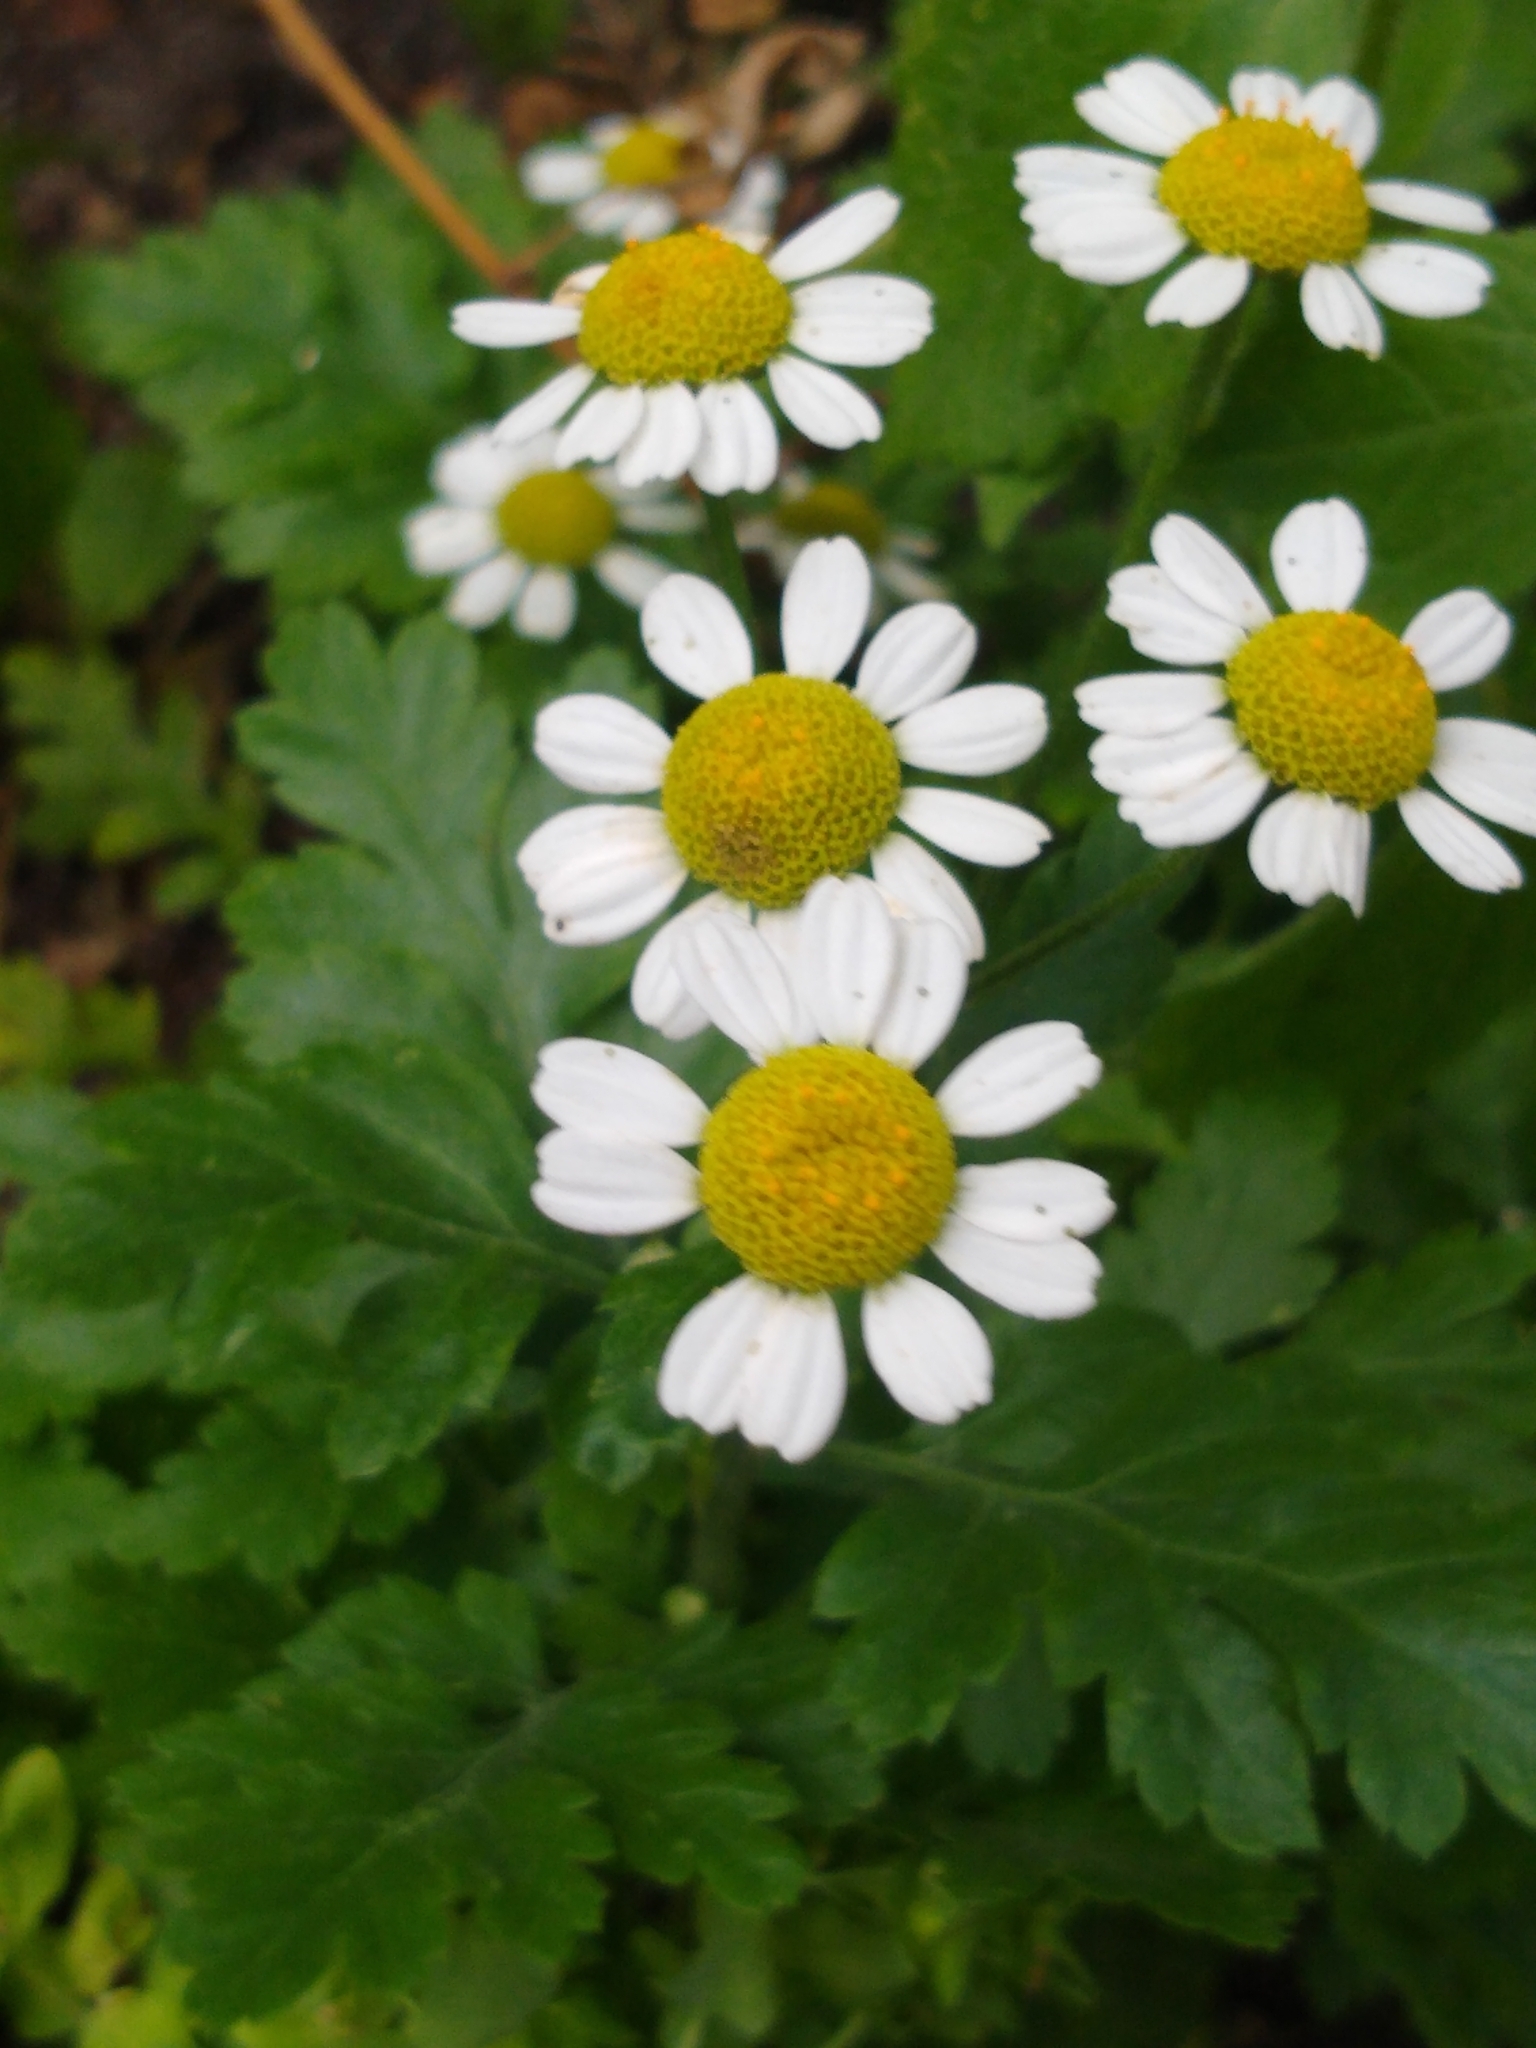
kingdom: Plantae
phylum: Tracheophyta
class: Magnoliopsida
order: Asterales
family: Asteraceae
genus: Tanacetum
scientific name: Tanacetum parthenium
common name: Feverfew
